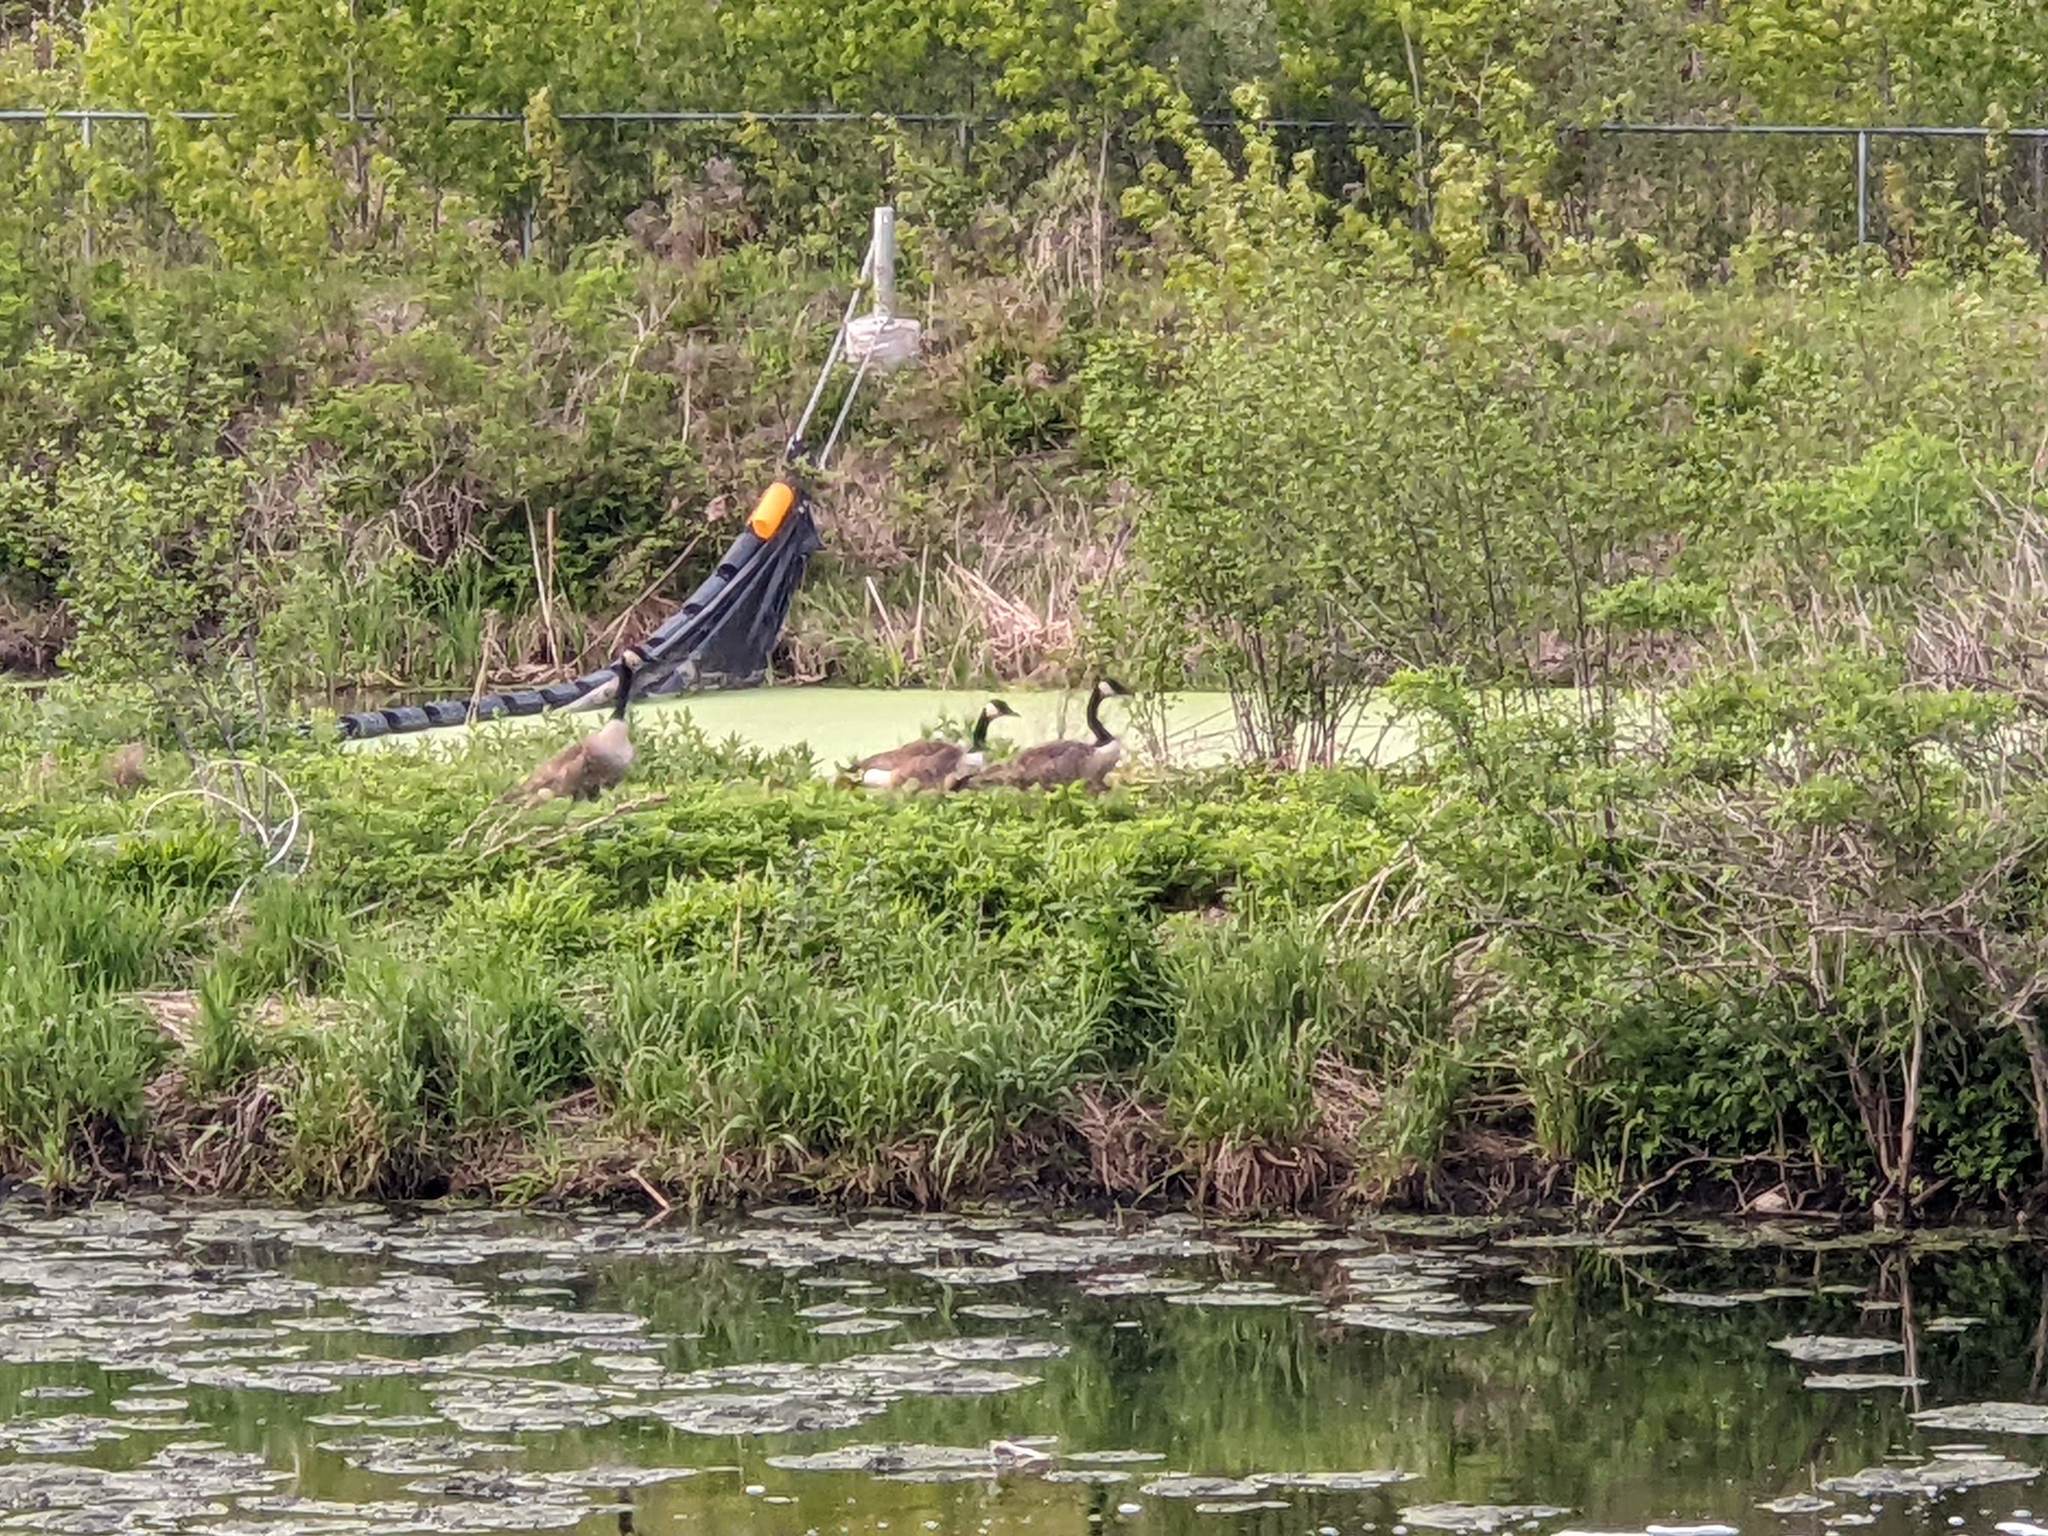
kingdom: Animalia
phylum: Chordata
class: Aves
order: Anseriformes
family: Anatidae
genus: Branta
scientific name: Branta canadensis
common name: Canada goose
